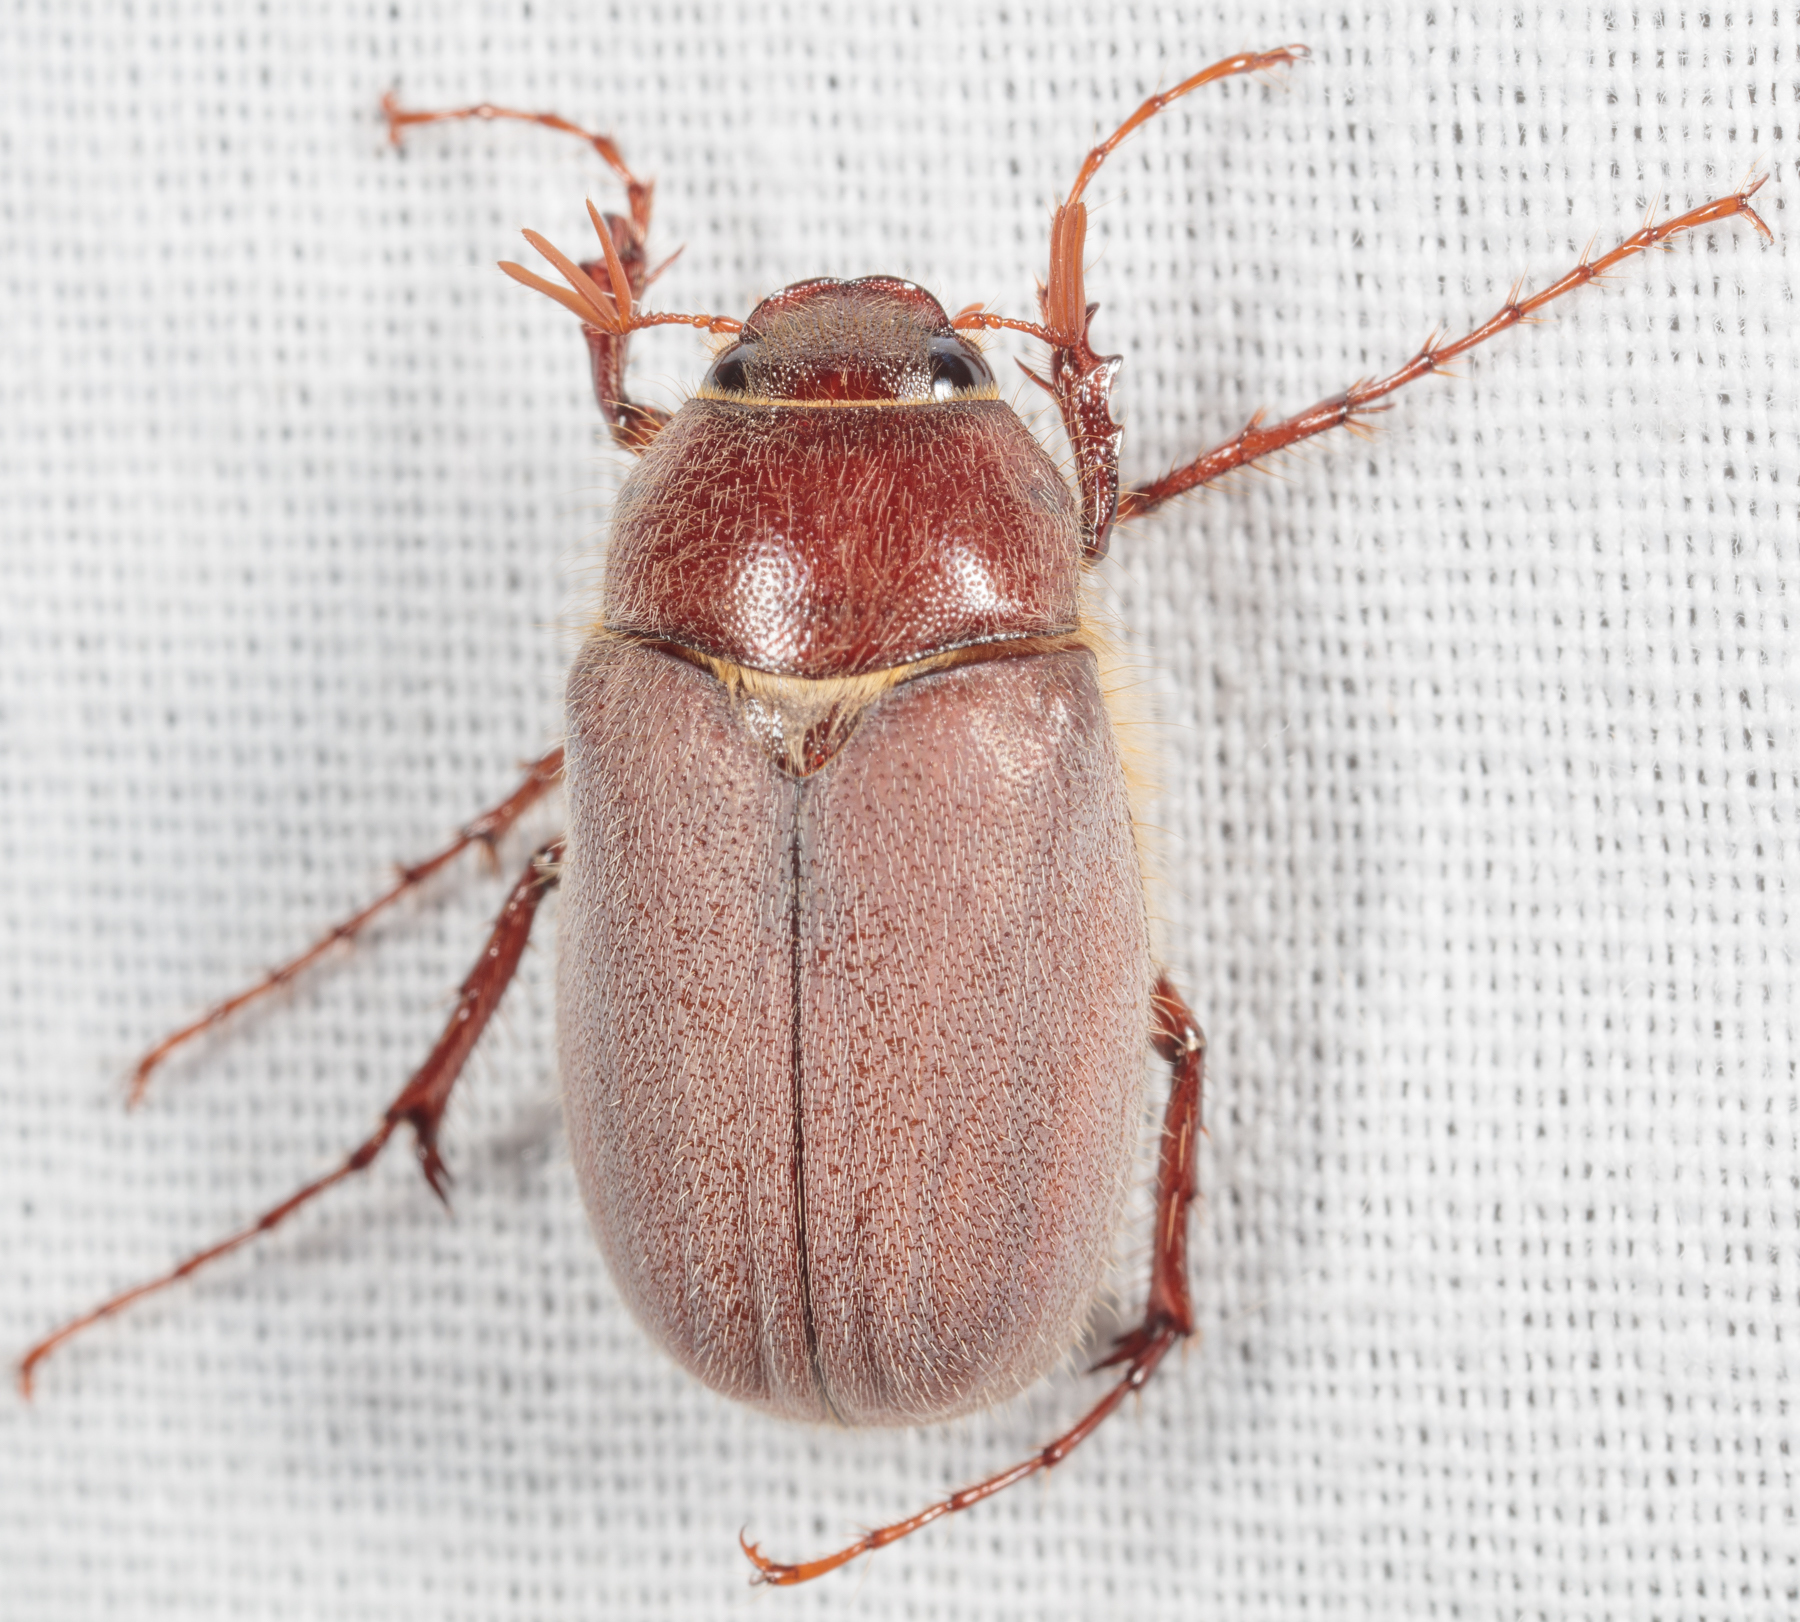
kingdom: Animalia
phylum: Arthropoda
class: Insecta
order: Coleoptera
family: Scarabaeidae
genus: Phyllophaga
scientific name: Phyllophaga rubiginosa
